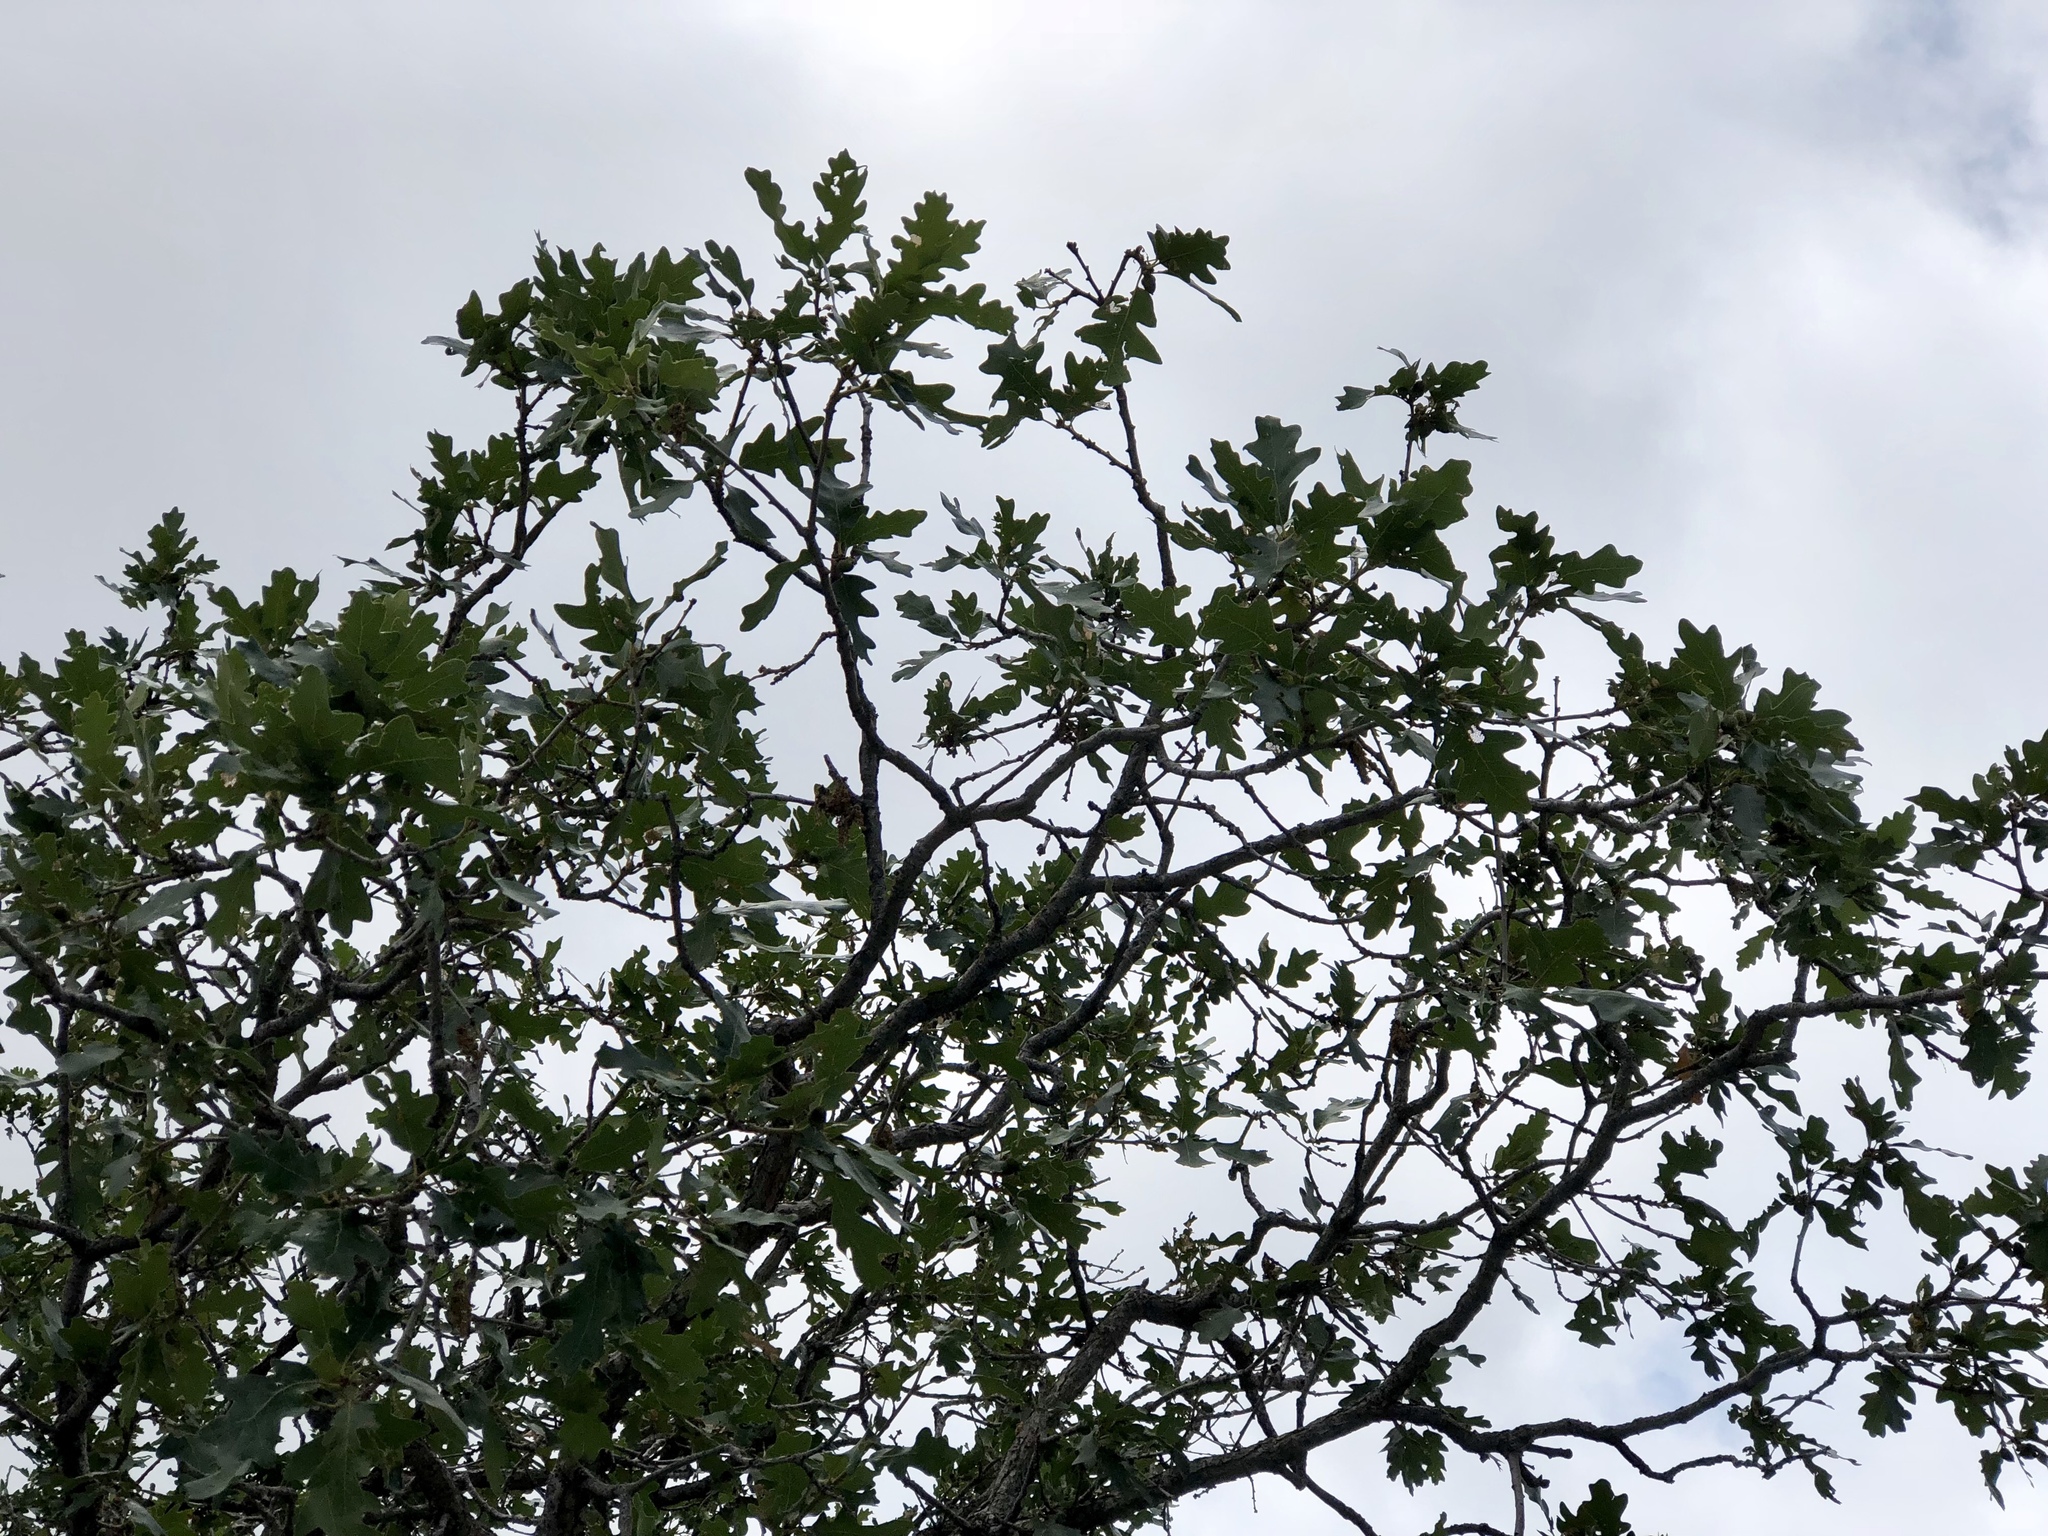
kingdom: Plantae
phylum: Tracheophyta
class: Magnoliopsida
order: Fagales
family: Fagaceae
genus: Quercus
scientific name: Quercus gambelii
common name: Gambel oak
